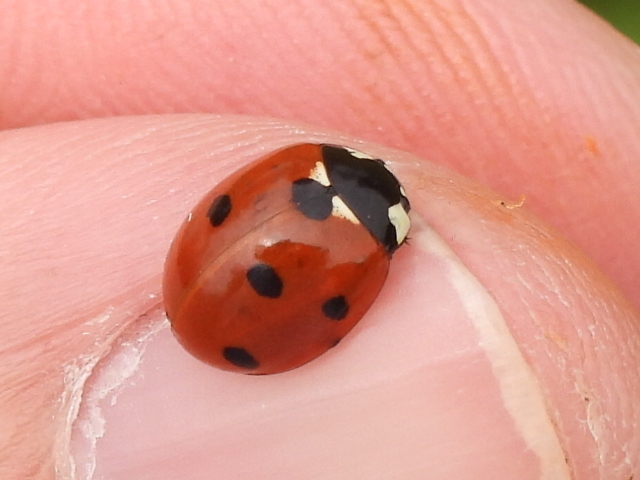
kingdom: Animalia
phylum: Arthropoda
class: Insecta
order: Coleoptera
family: Coccinellidae
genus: Coccinella
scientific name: Coccinella septempunctata
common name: Sevenspotted lady beetle
